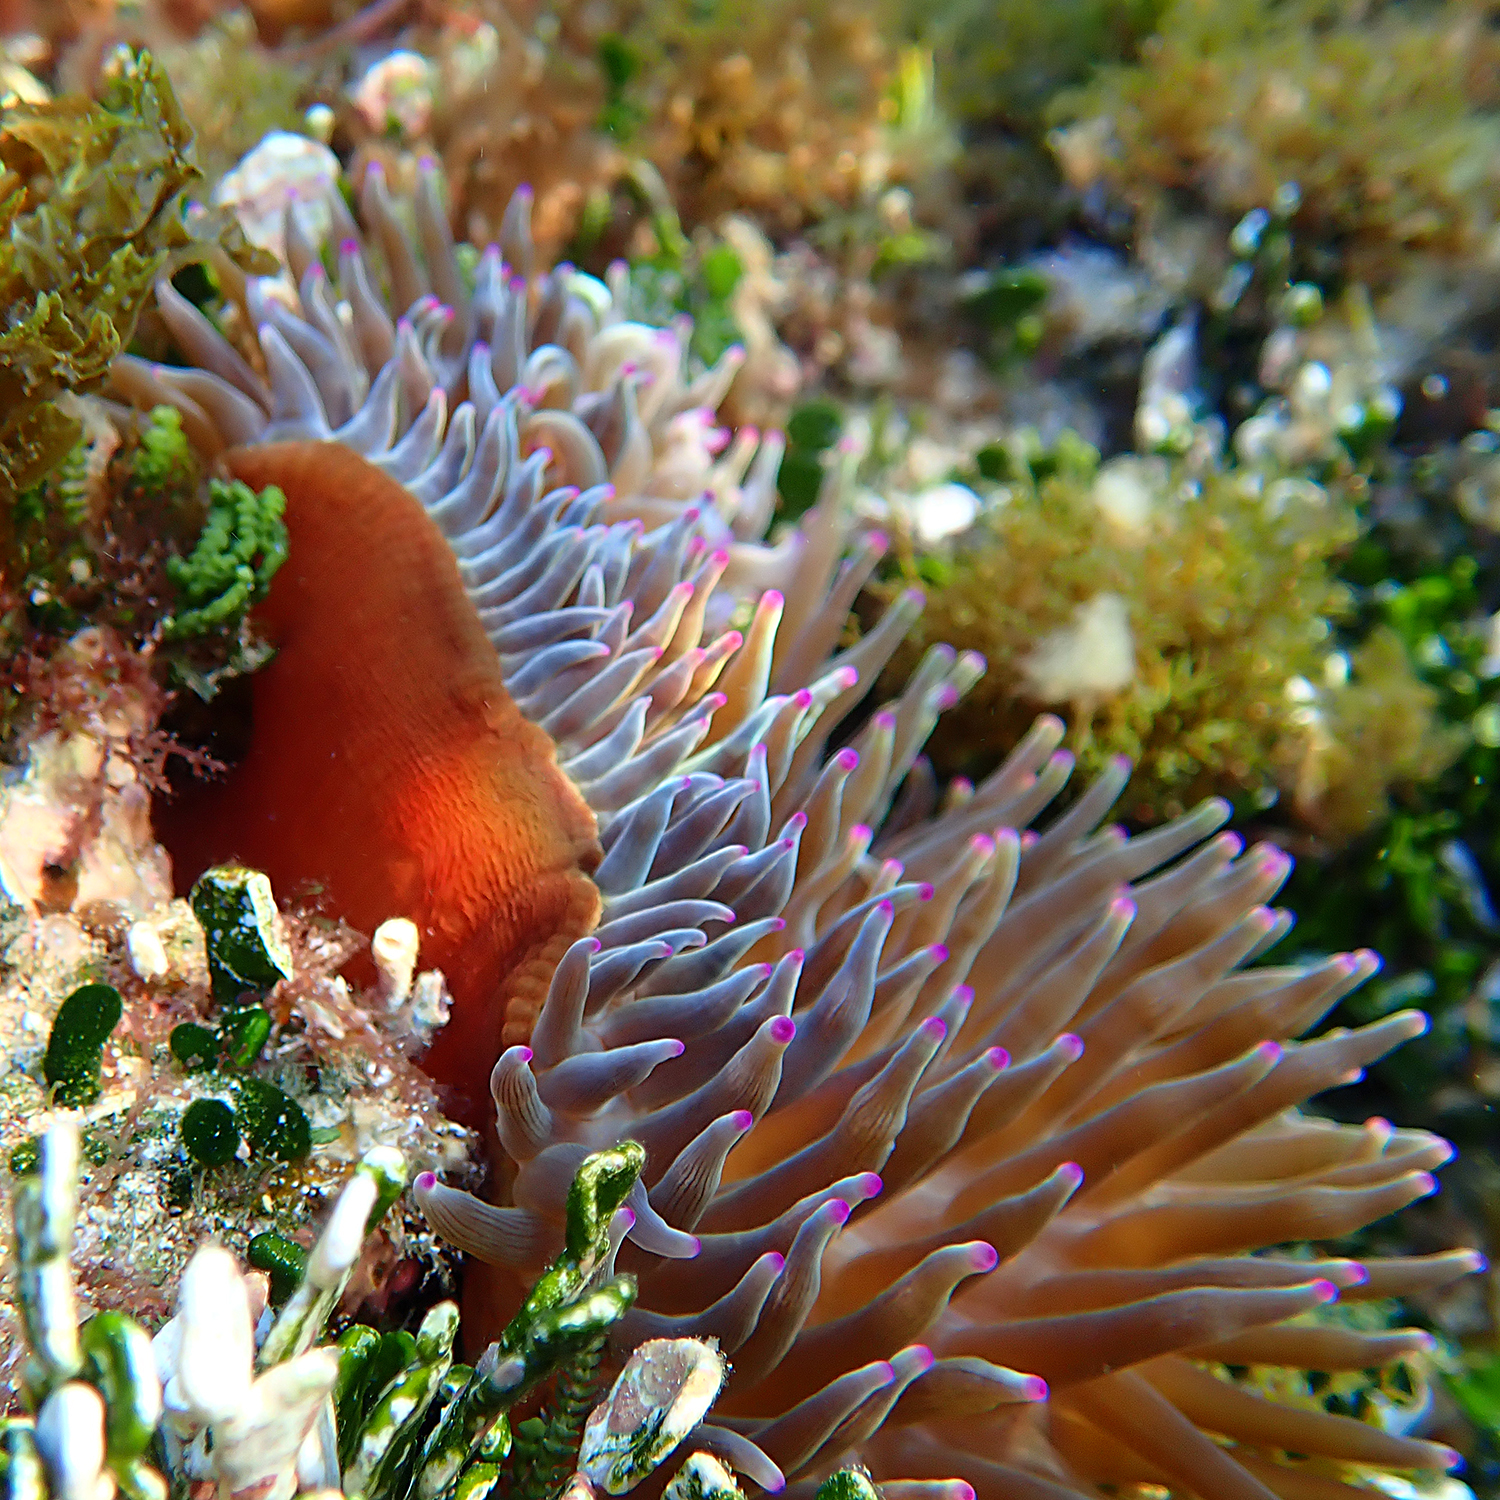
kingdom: Animalia
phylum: Cnidaria
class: Anthozoa
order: Actiniaria
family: Actiniidae
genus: Entacmaea
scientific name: Entacmaea quadricolor
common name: Bulb tentacle sea anemone
